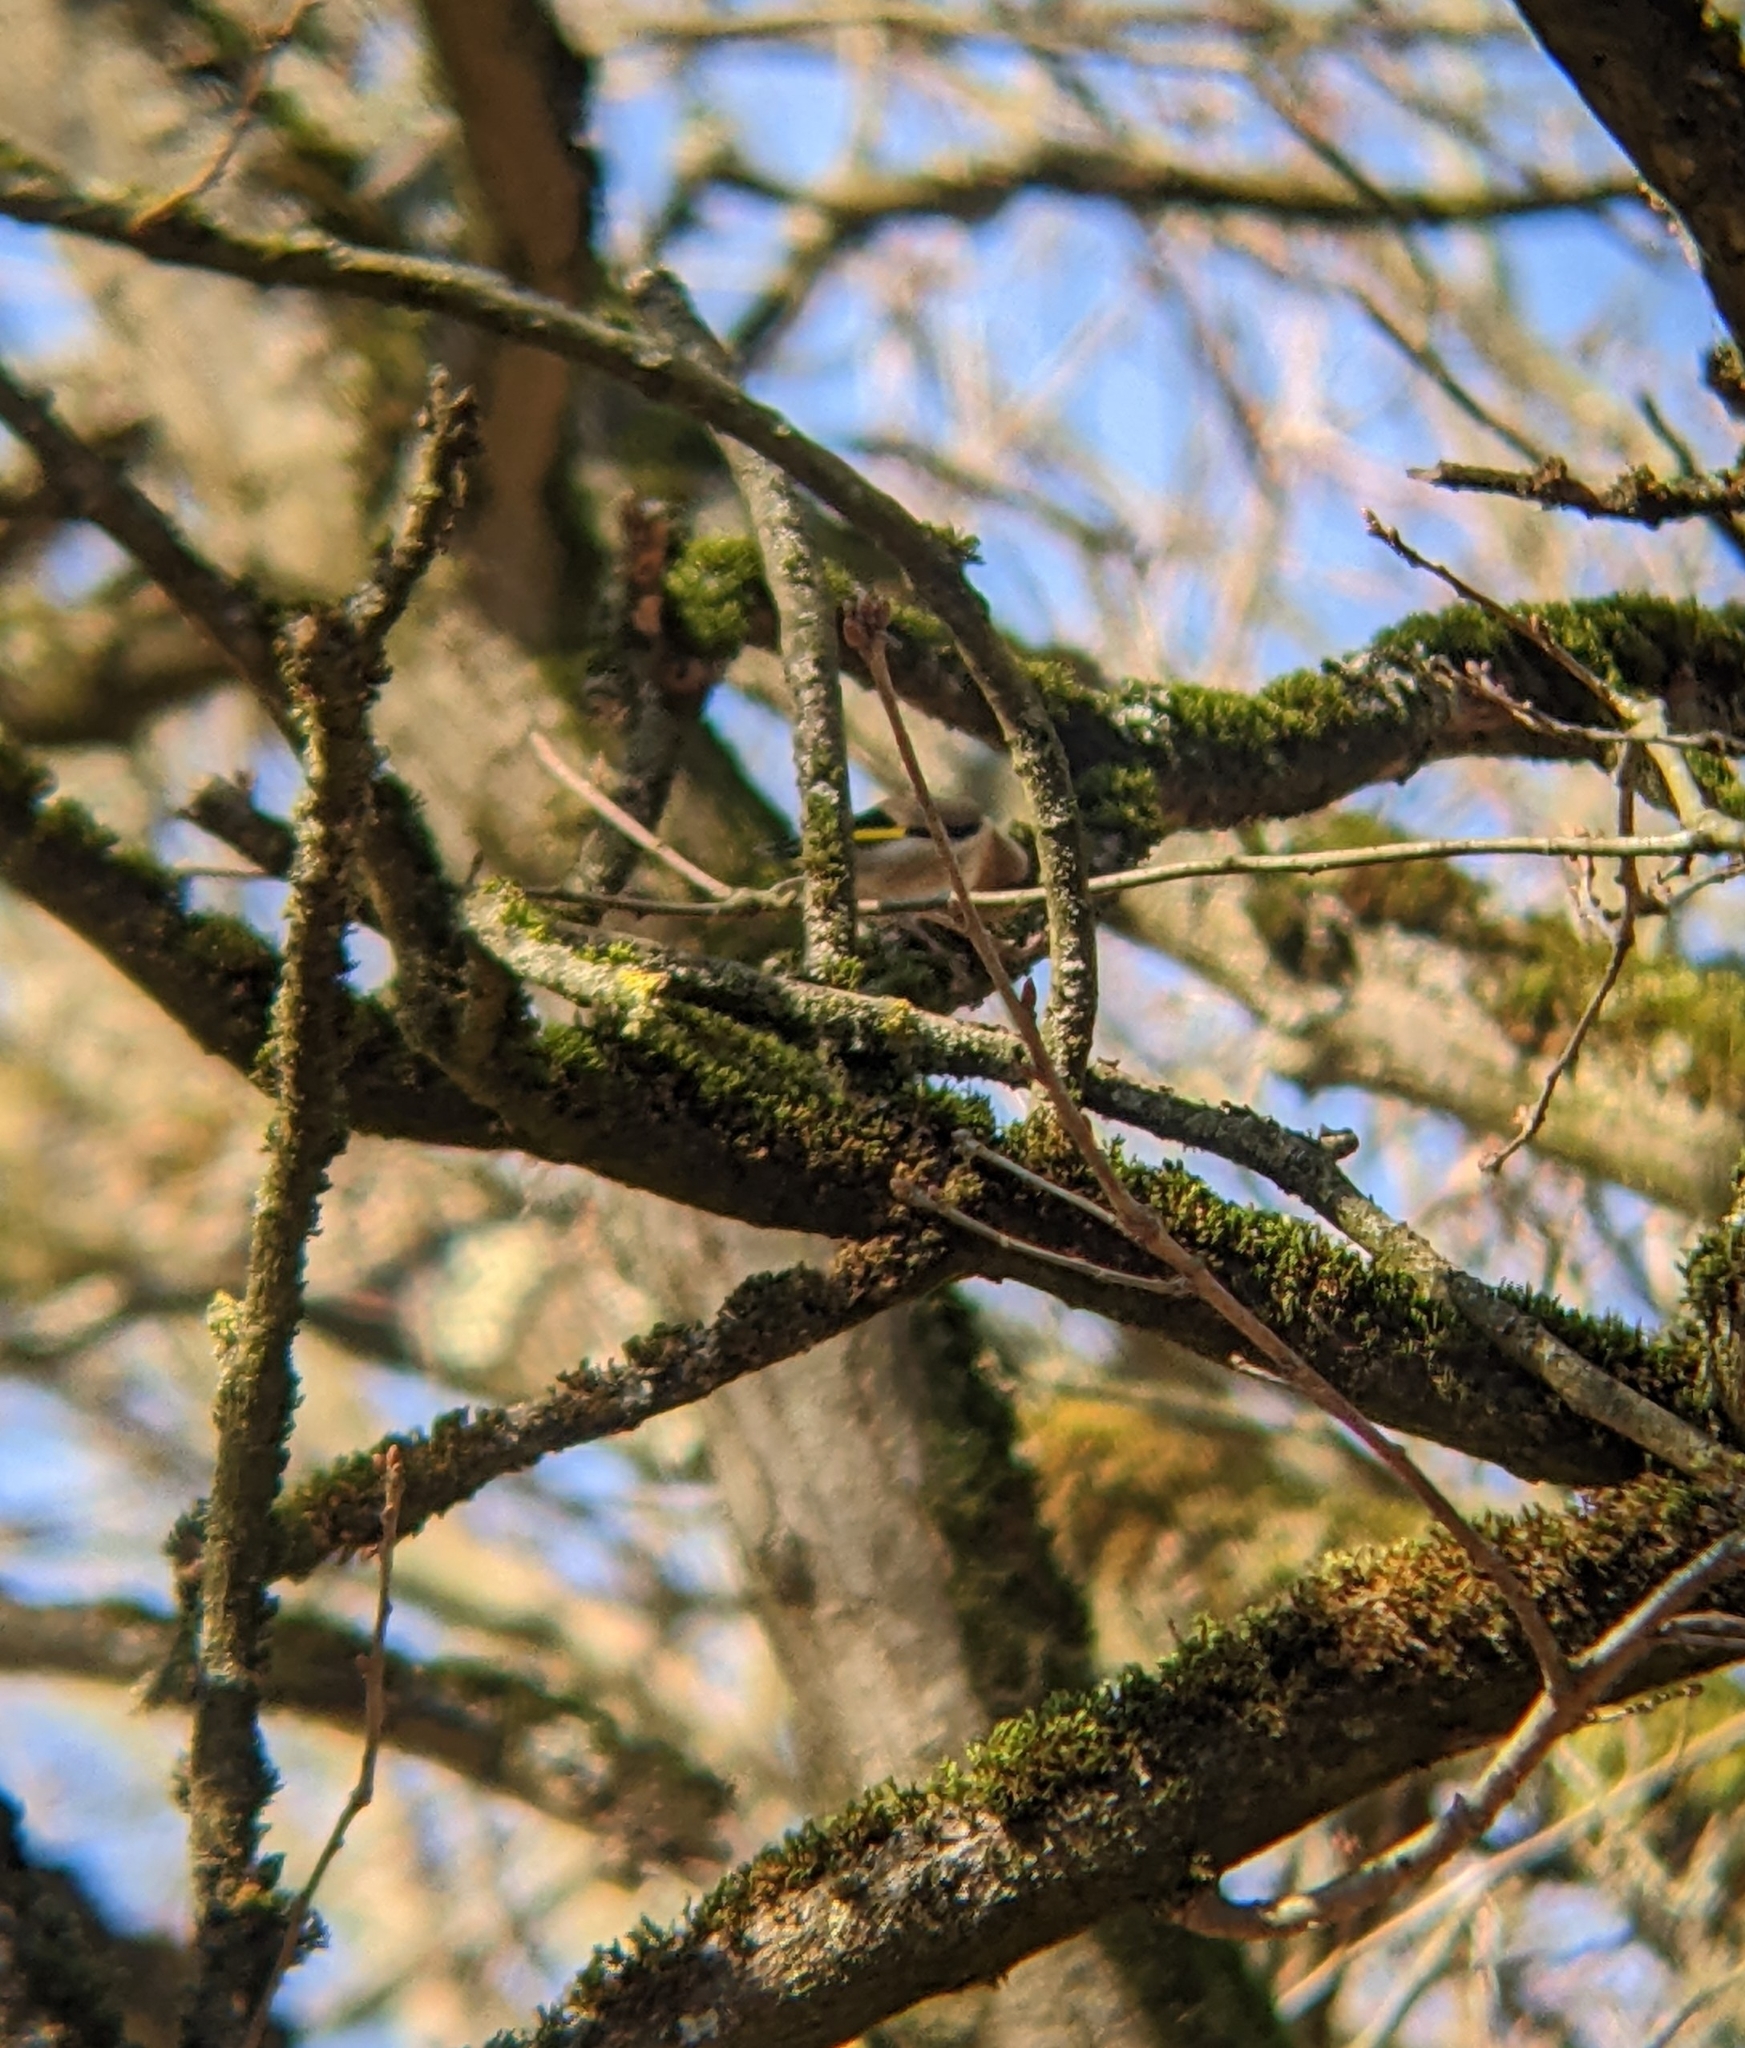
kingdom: Animalia
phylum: Chordata
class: Aves
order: Passeriformes
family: Fringillidae
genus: Carduelis
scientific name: Carduelis carduelis
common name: European goldfinch
